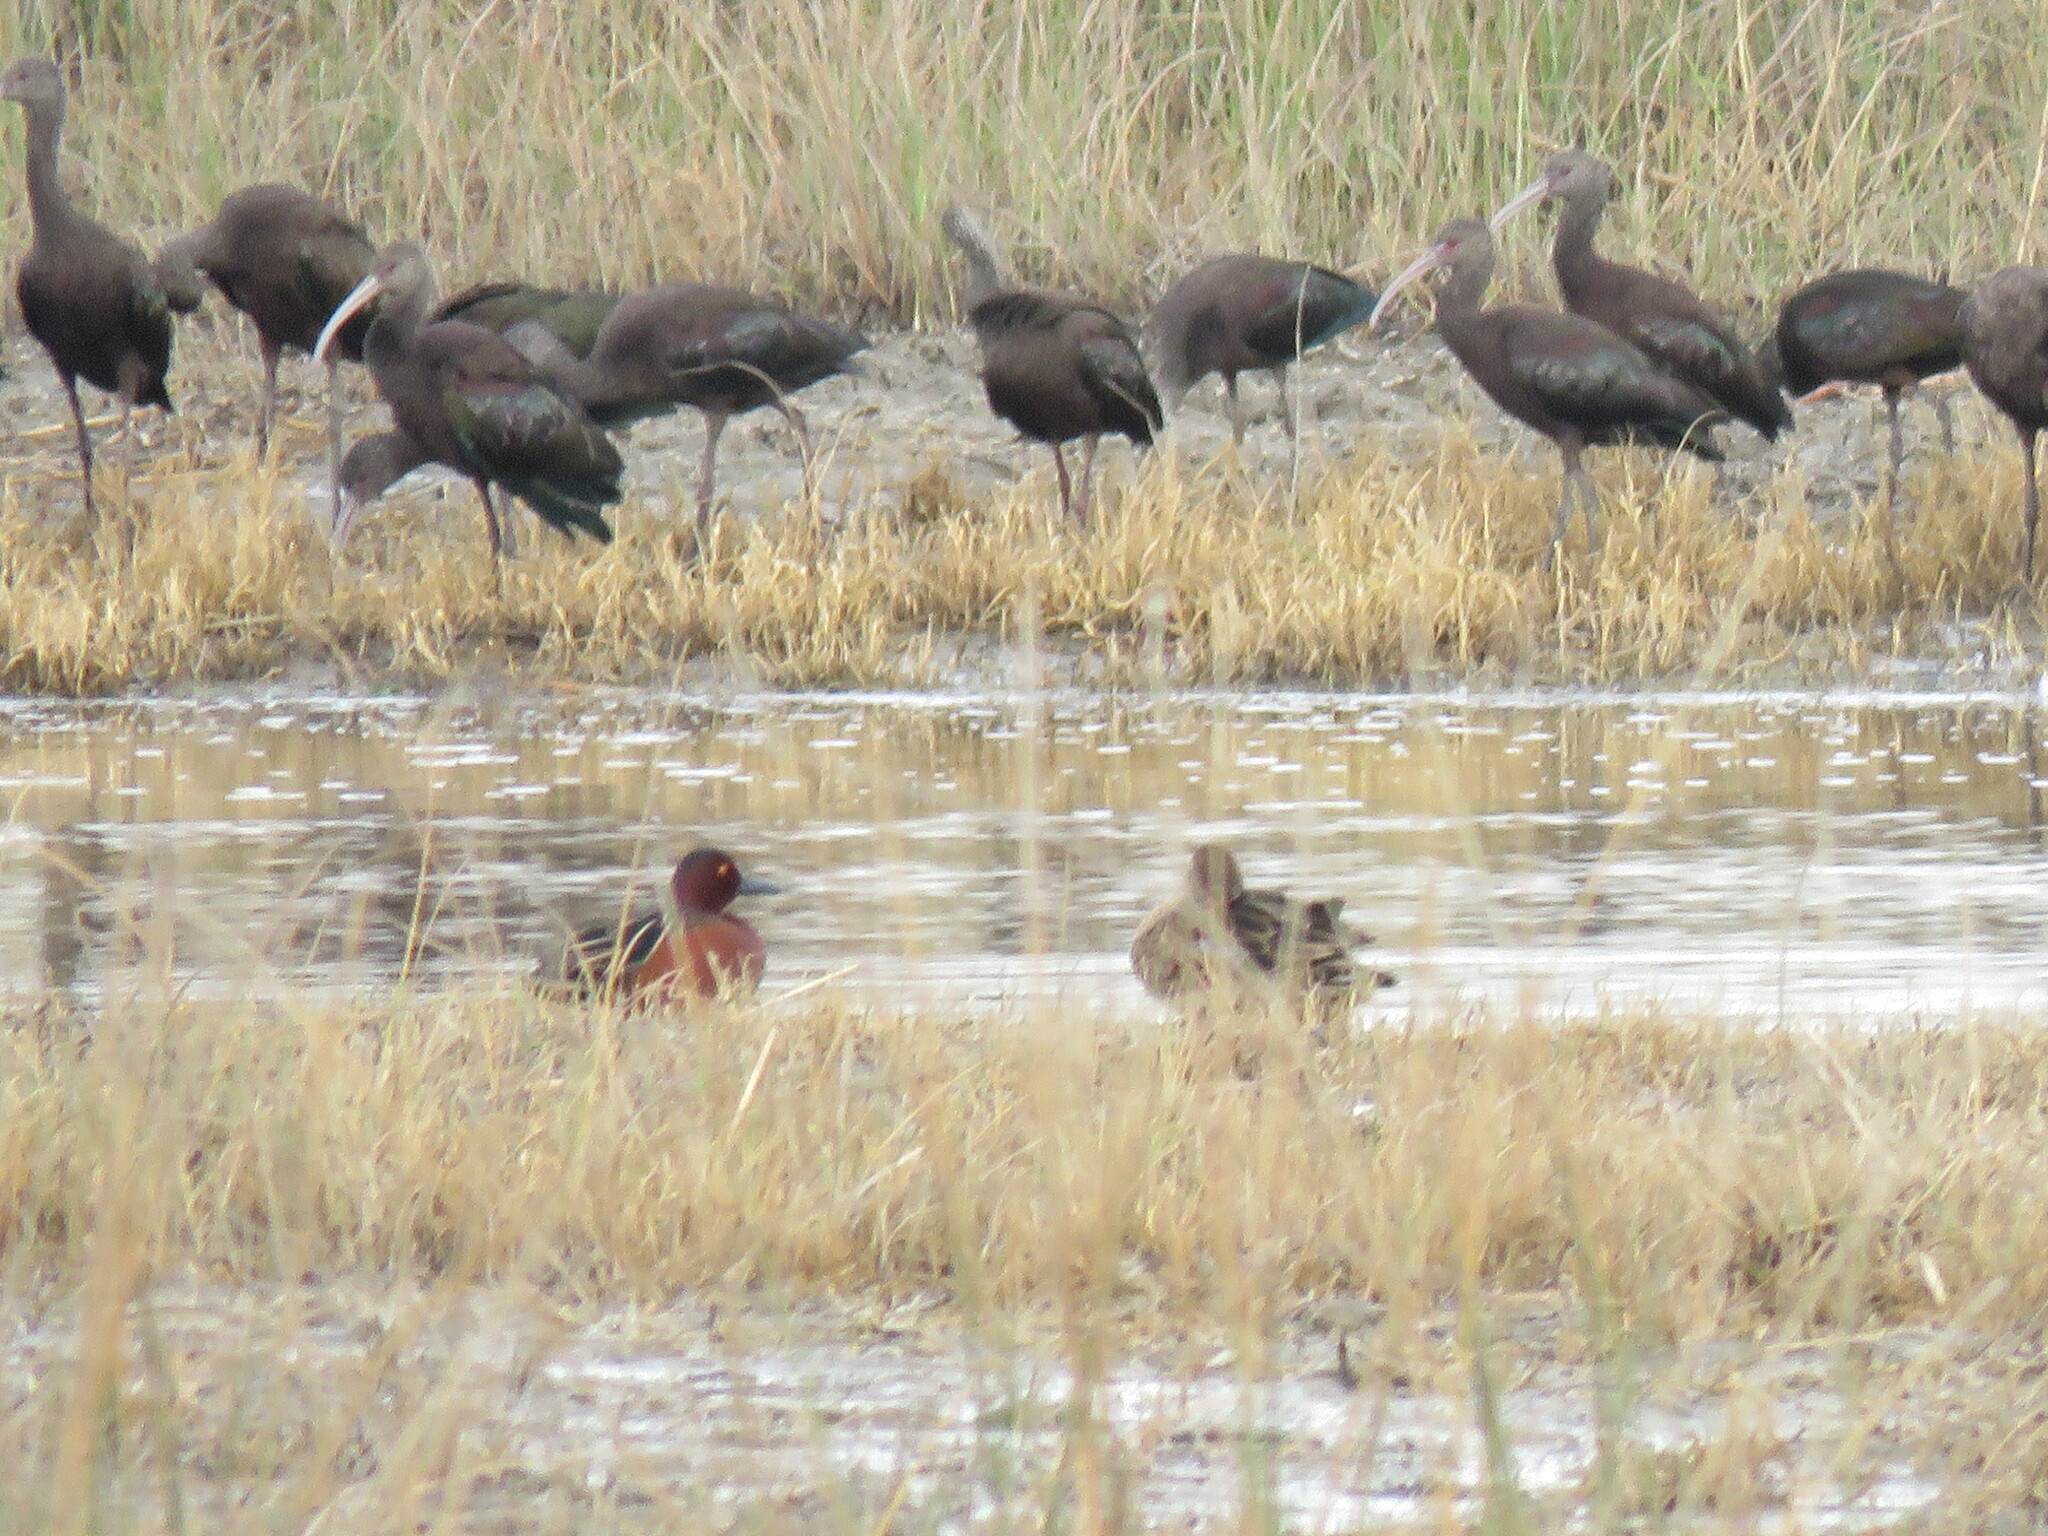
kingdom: Animalia
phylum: Chordata
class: Aves
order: Anseriformes
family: Anatidae
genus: Spatula
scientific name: Spatula cyanoptera
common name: Cinnamon teal
